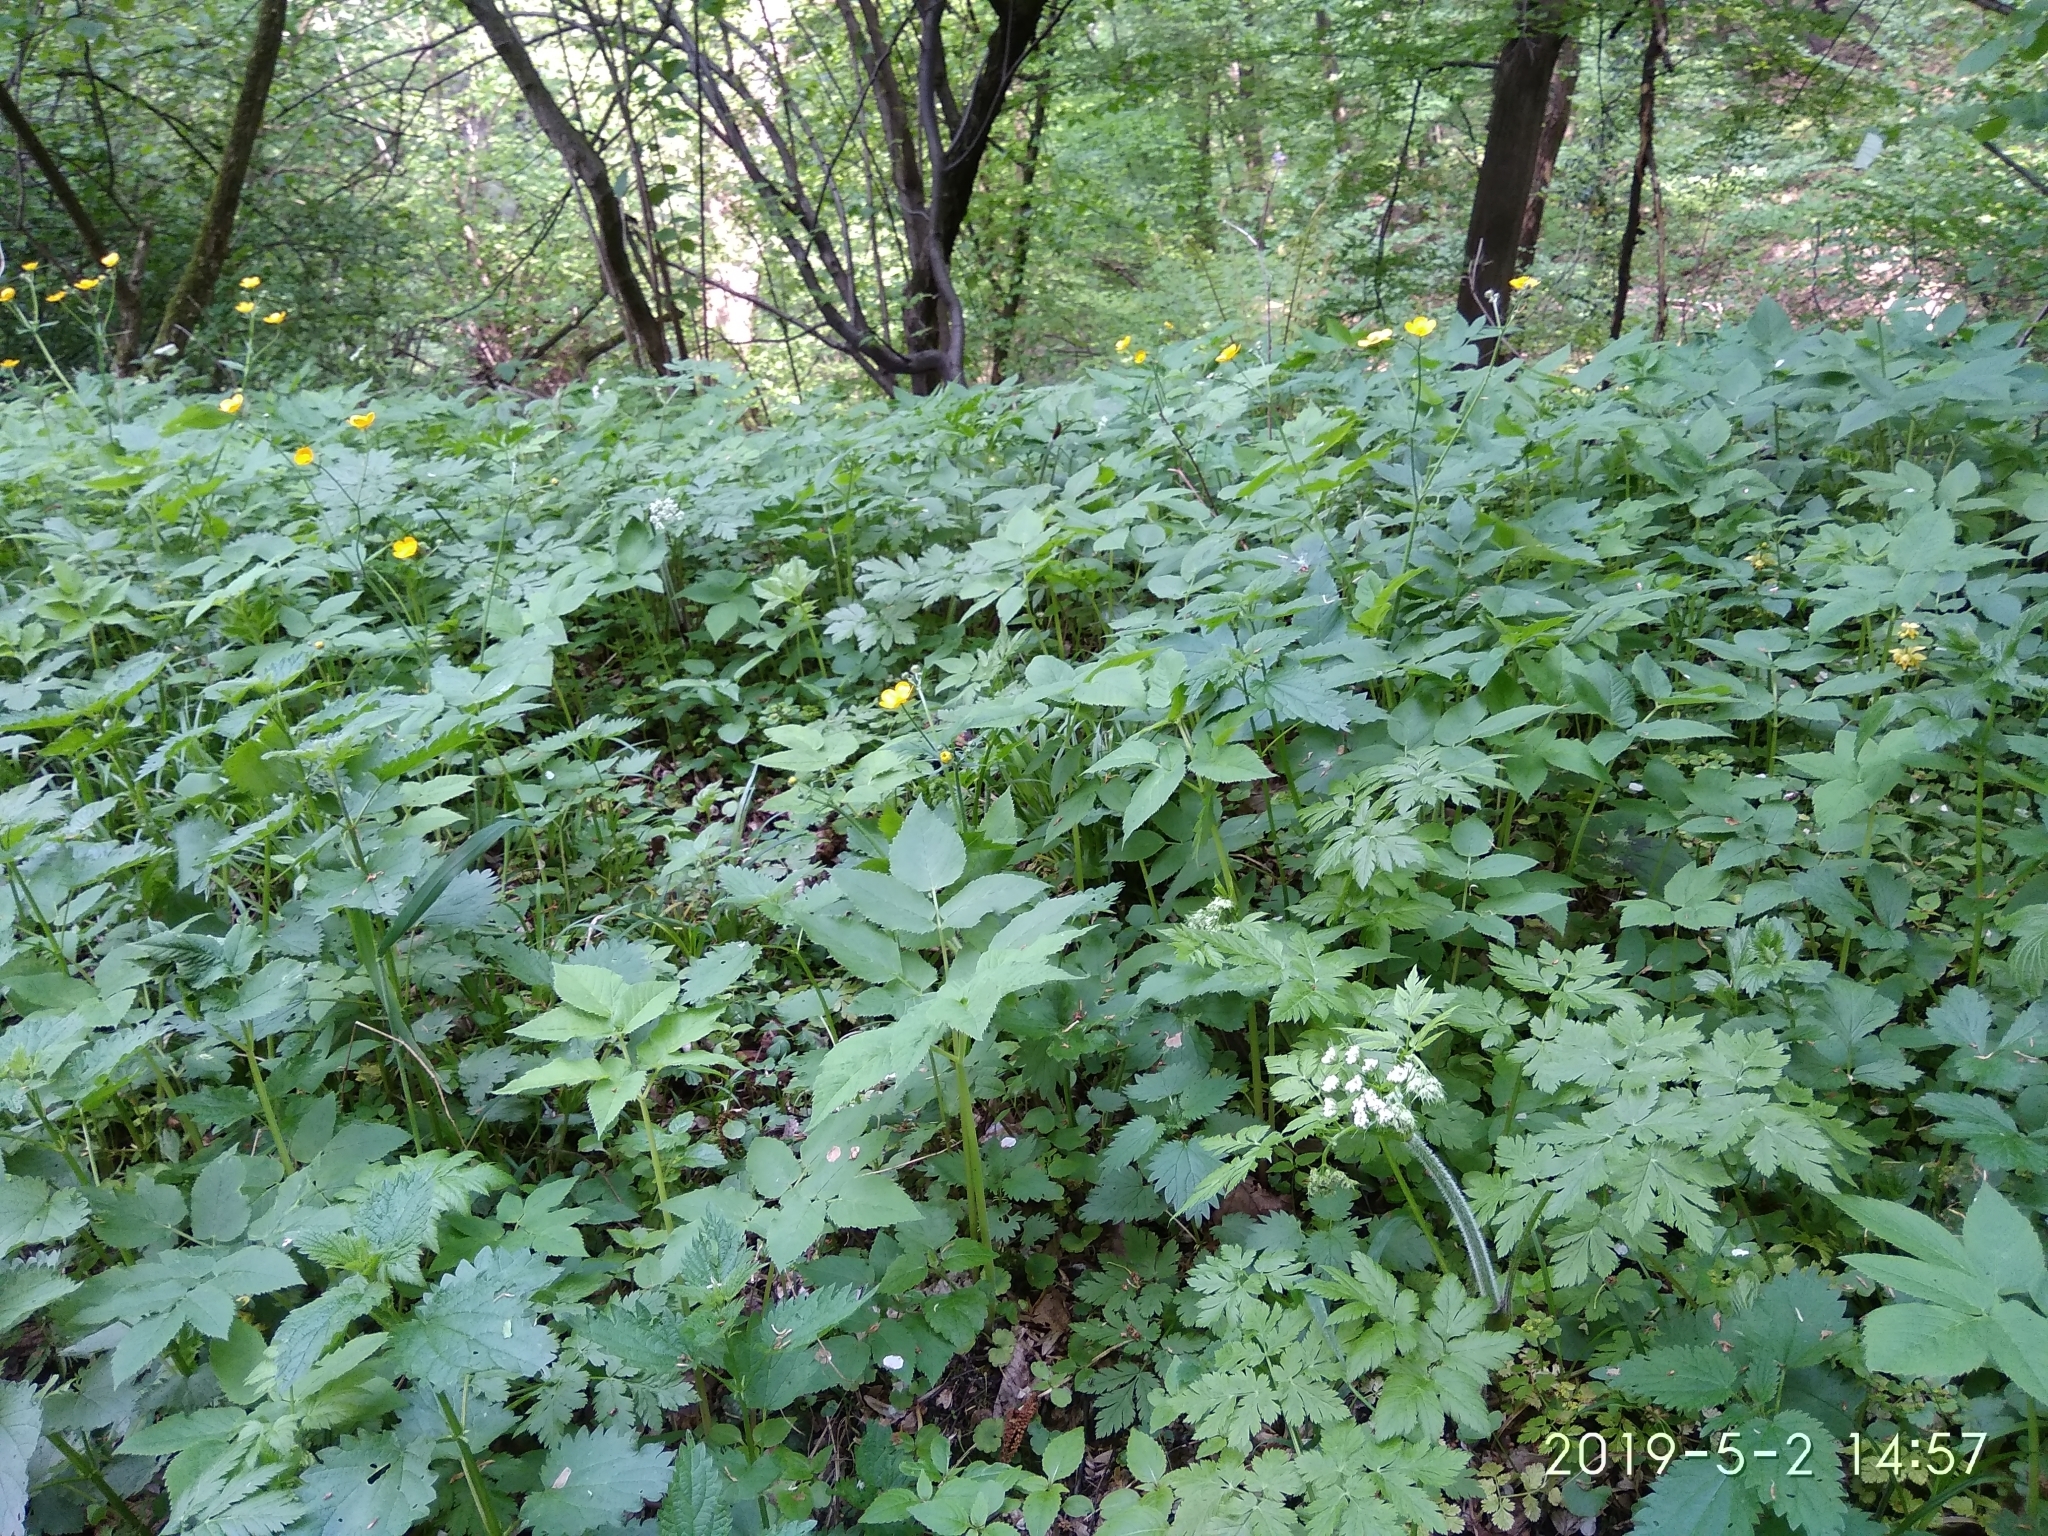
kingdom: Plantae
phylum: Tracheophyta
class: Magnoliopsida
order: Apiales
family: Apiaceae
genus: Chaerophyllum
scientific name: Chaerophyllum hirsutum
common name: Hairy chervil
